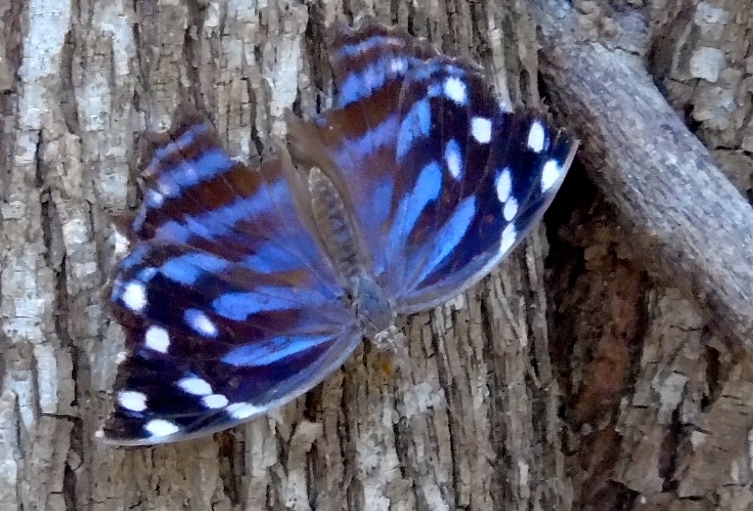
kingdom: Animalia
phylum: Arthropoda
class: Insecta
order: Lepidoptera
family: Nymphalidae
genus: Myscelia
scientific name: Myscelia
